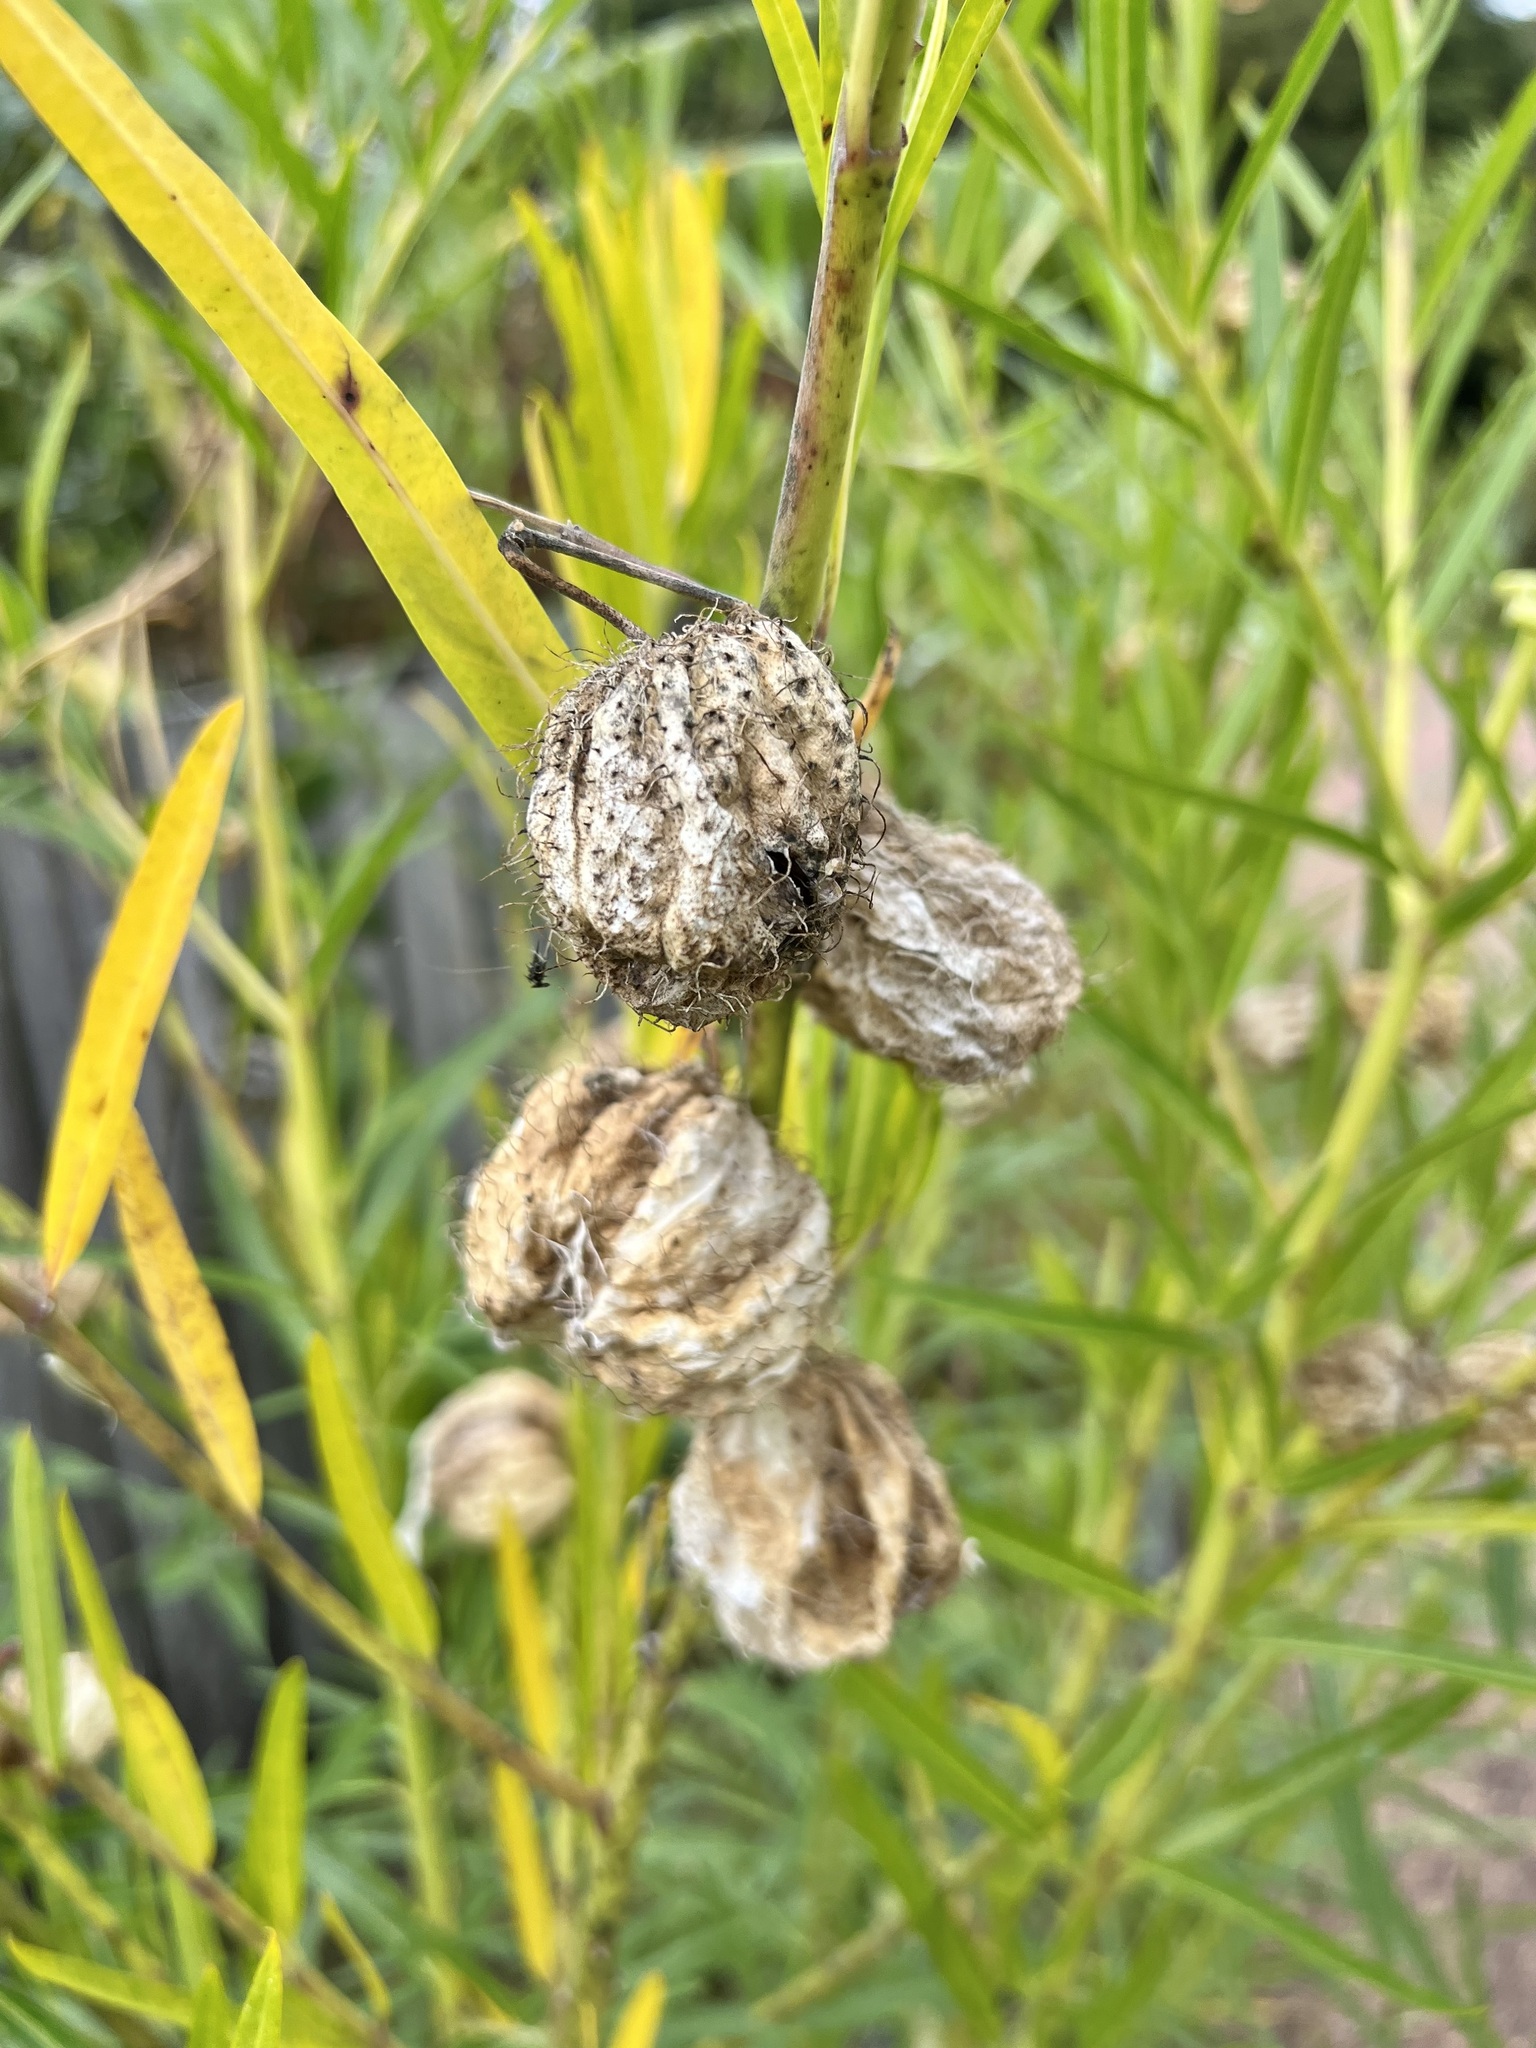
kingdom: Plantae
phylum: Tracheophyta
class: Magnoliopsida
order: Gentianales
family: Apocynaceae
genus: Gomphocarpus
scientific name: Gomphocarpus physocarpus
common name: Balloon cotton bush
